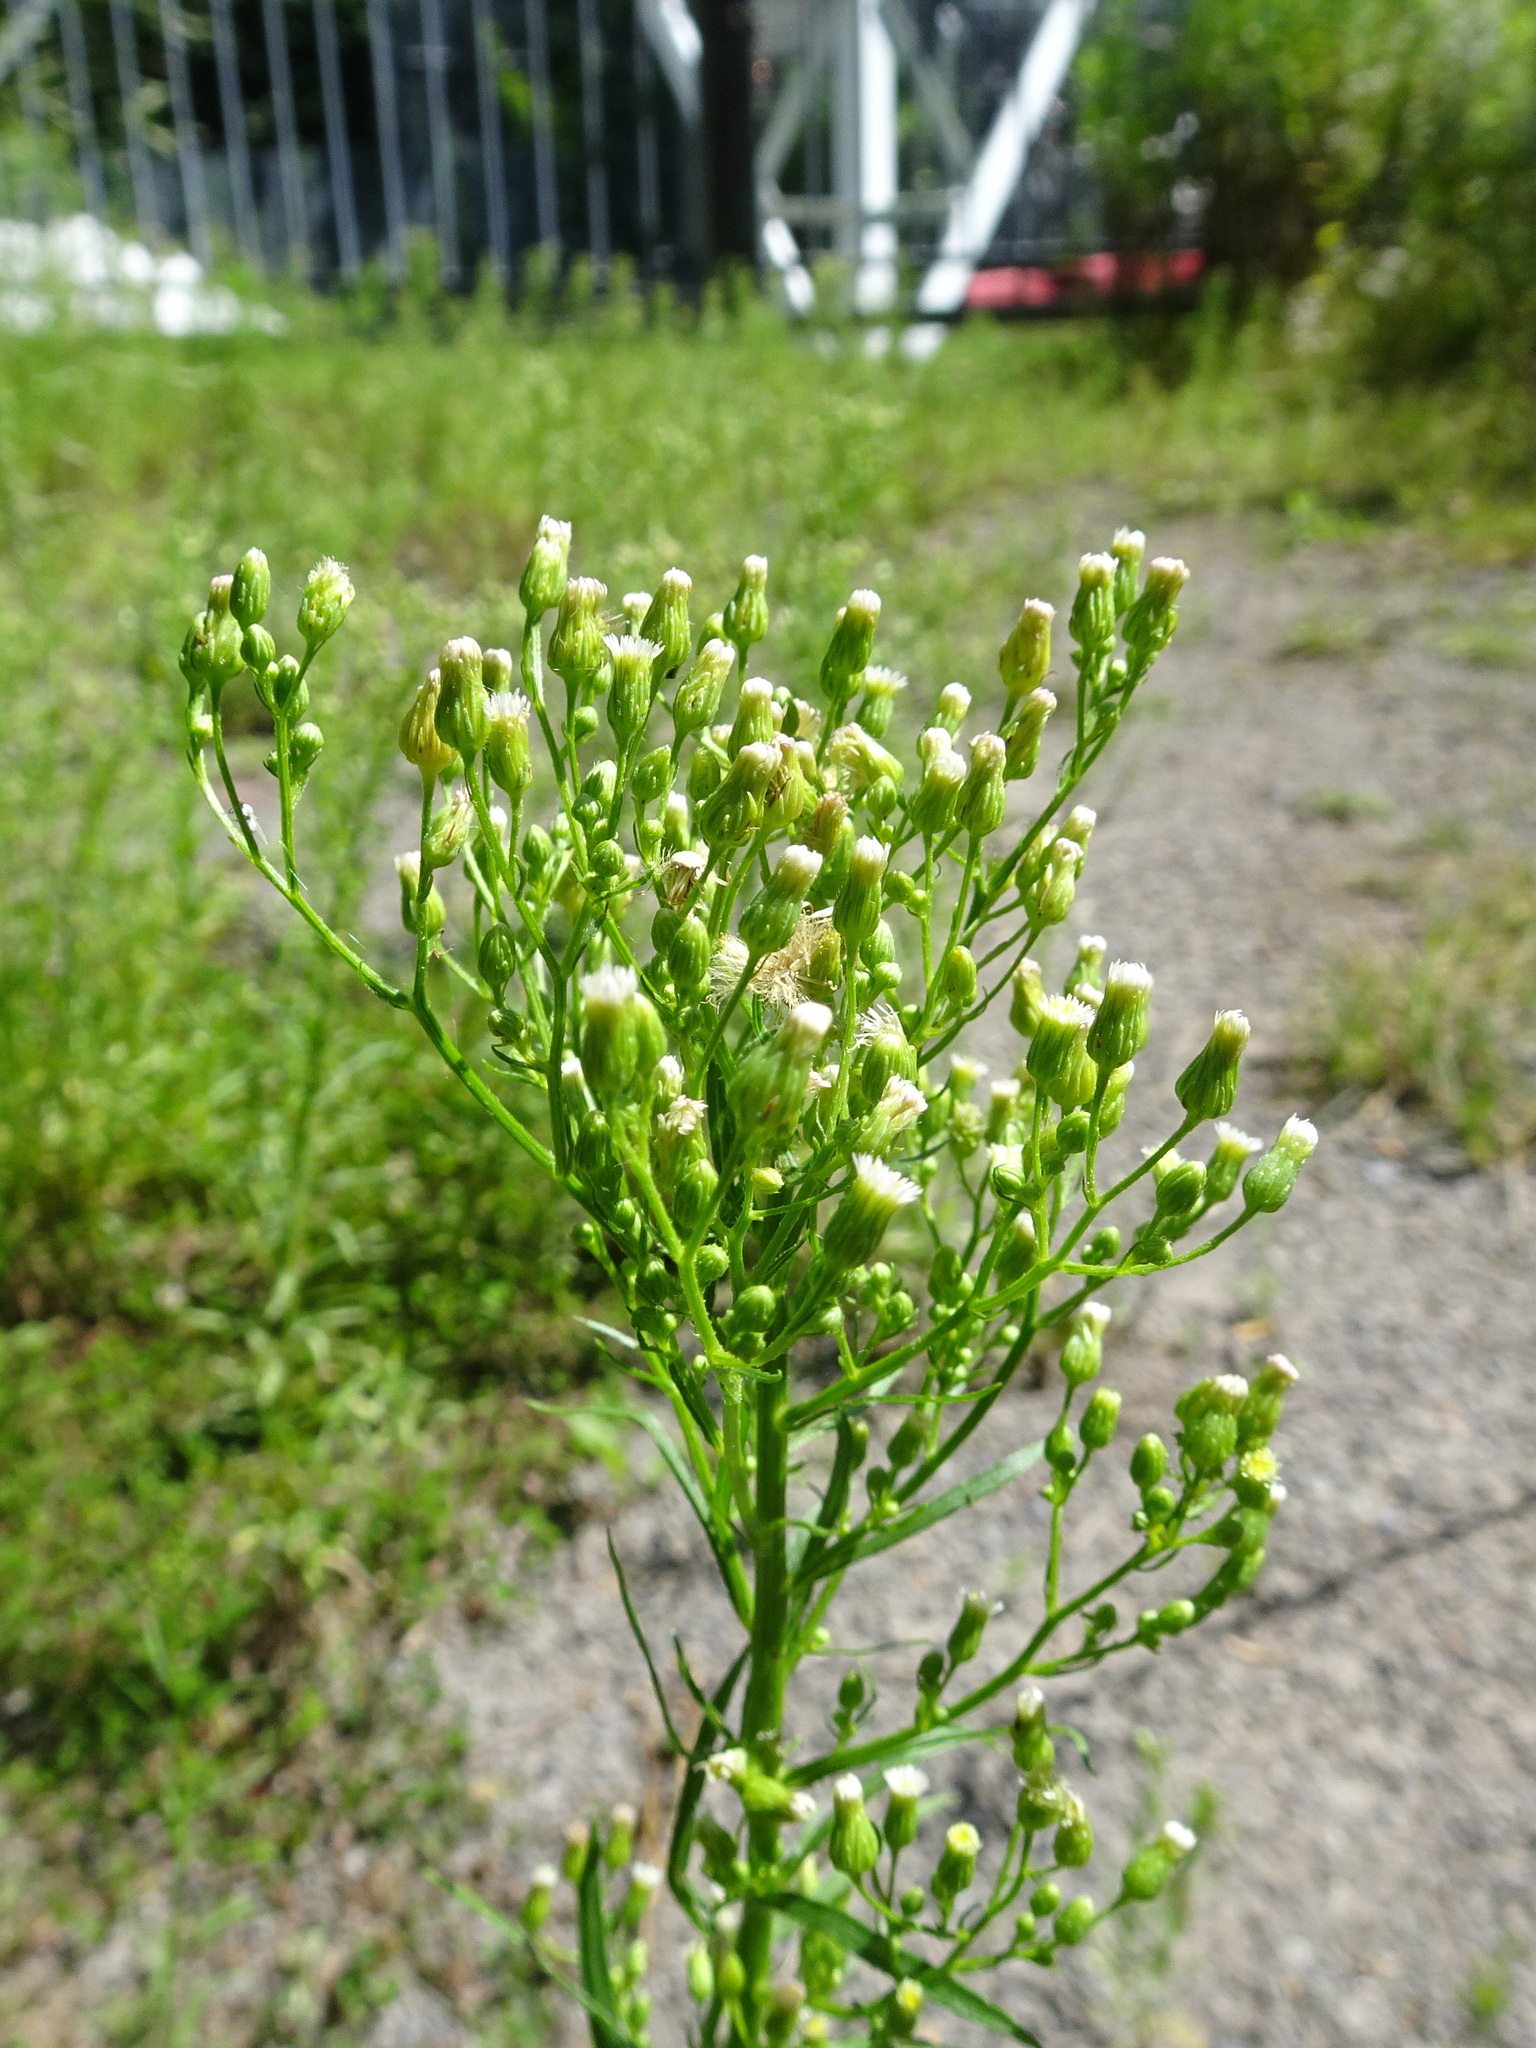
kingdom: Plantae
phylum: Tracheophyta
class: Magnoliopsida
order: Asterales
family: Asteraceae
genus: Erigeron
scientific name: Erigeron canadensis
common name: Canadian fleabane
